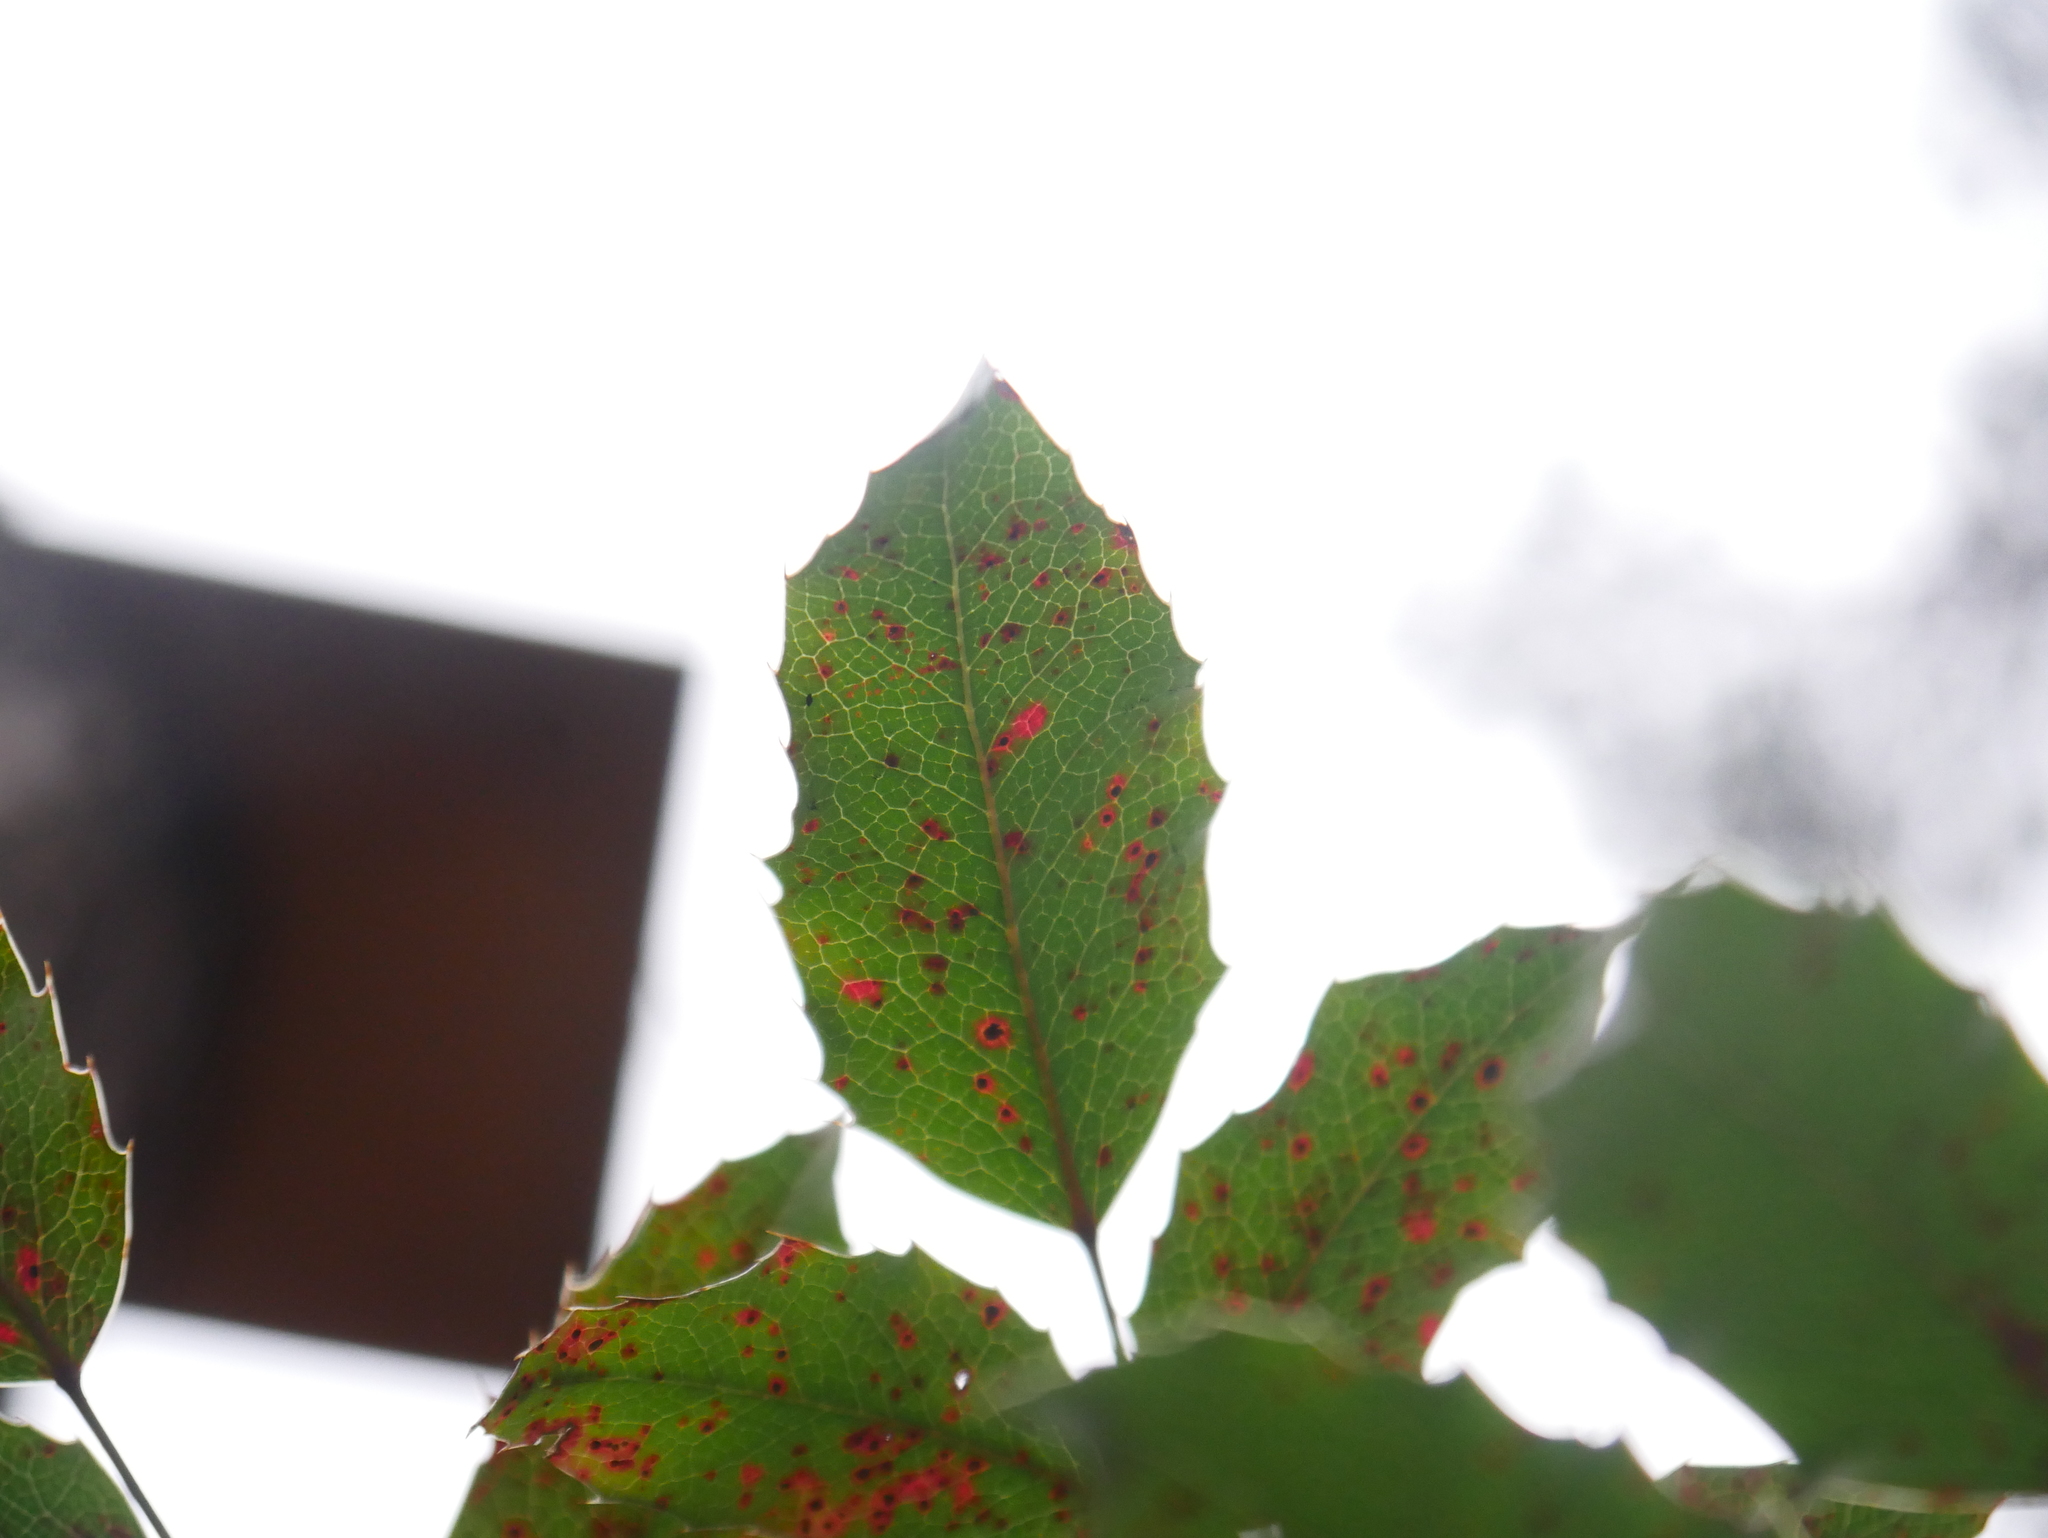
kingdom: Fungi
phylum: Basidiomycota
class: Pucciniomycetes
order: Pucciniales
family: Pucciniaceae
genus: Cumminsiella
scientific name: Cumminsiella mirabilissima
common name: Mahonia rust
